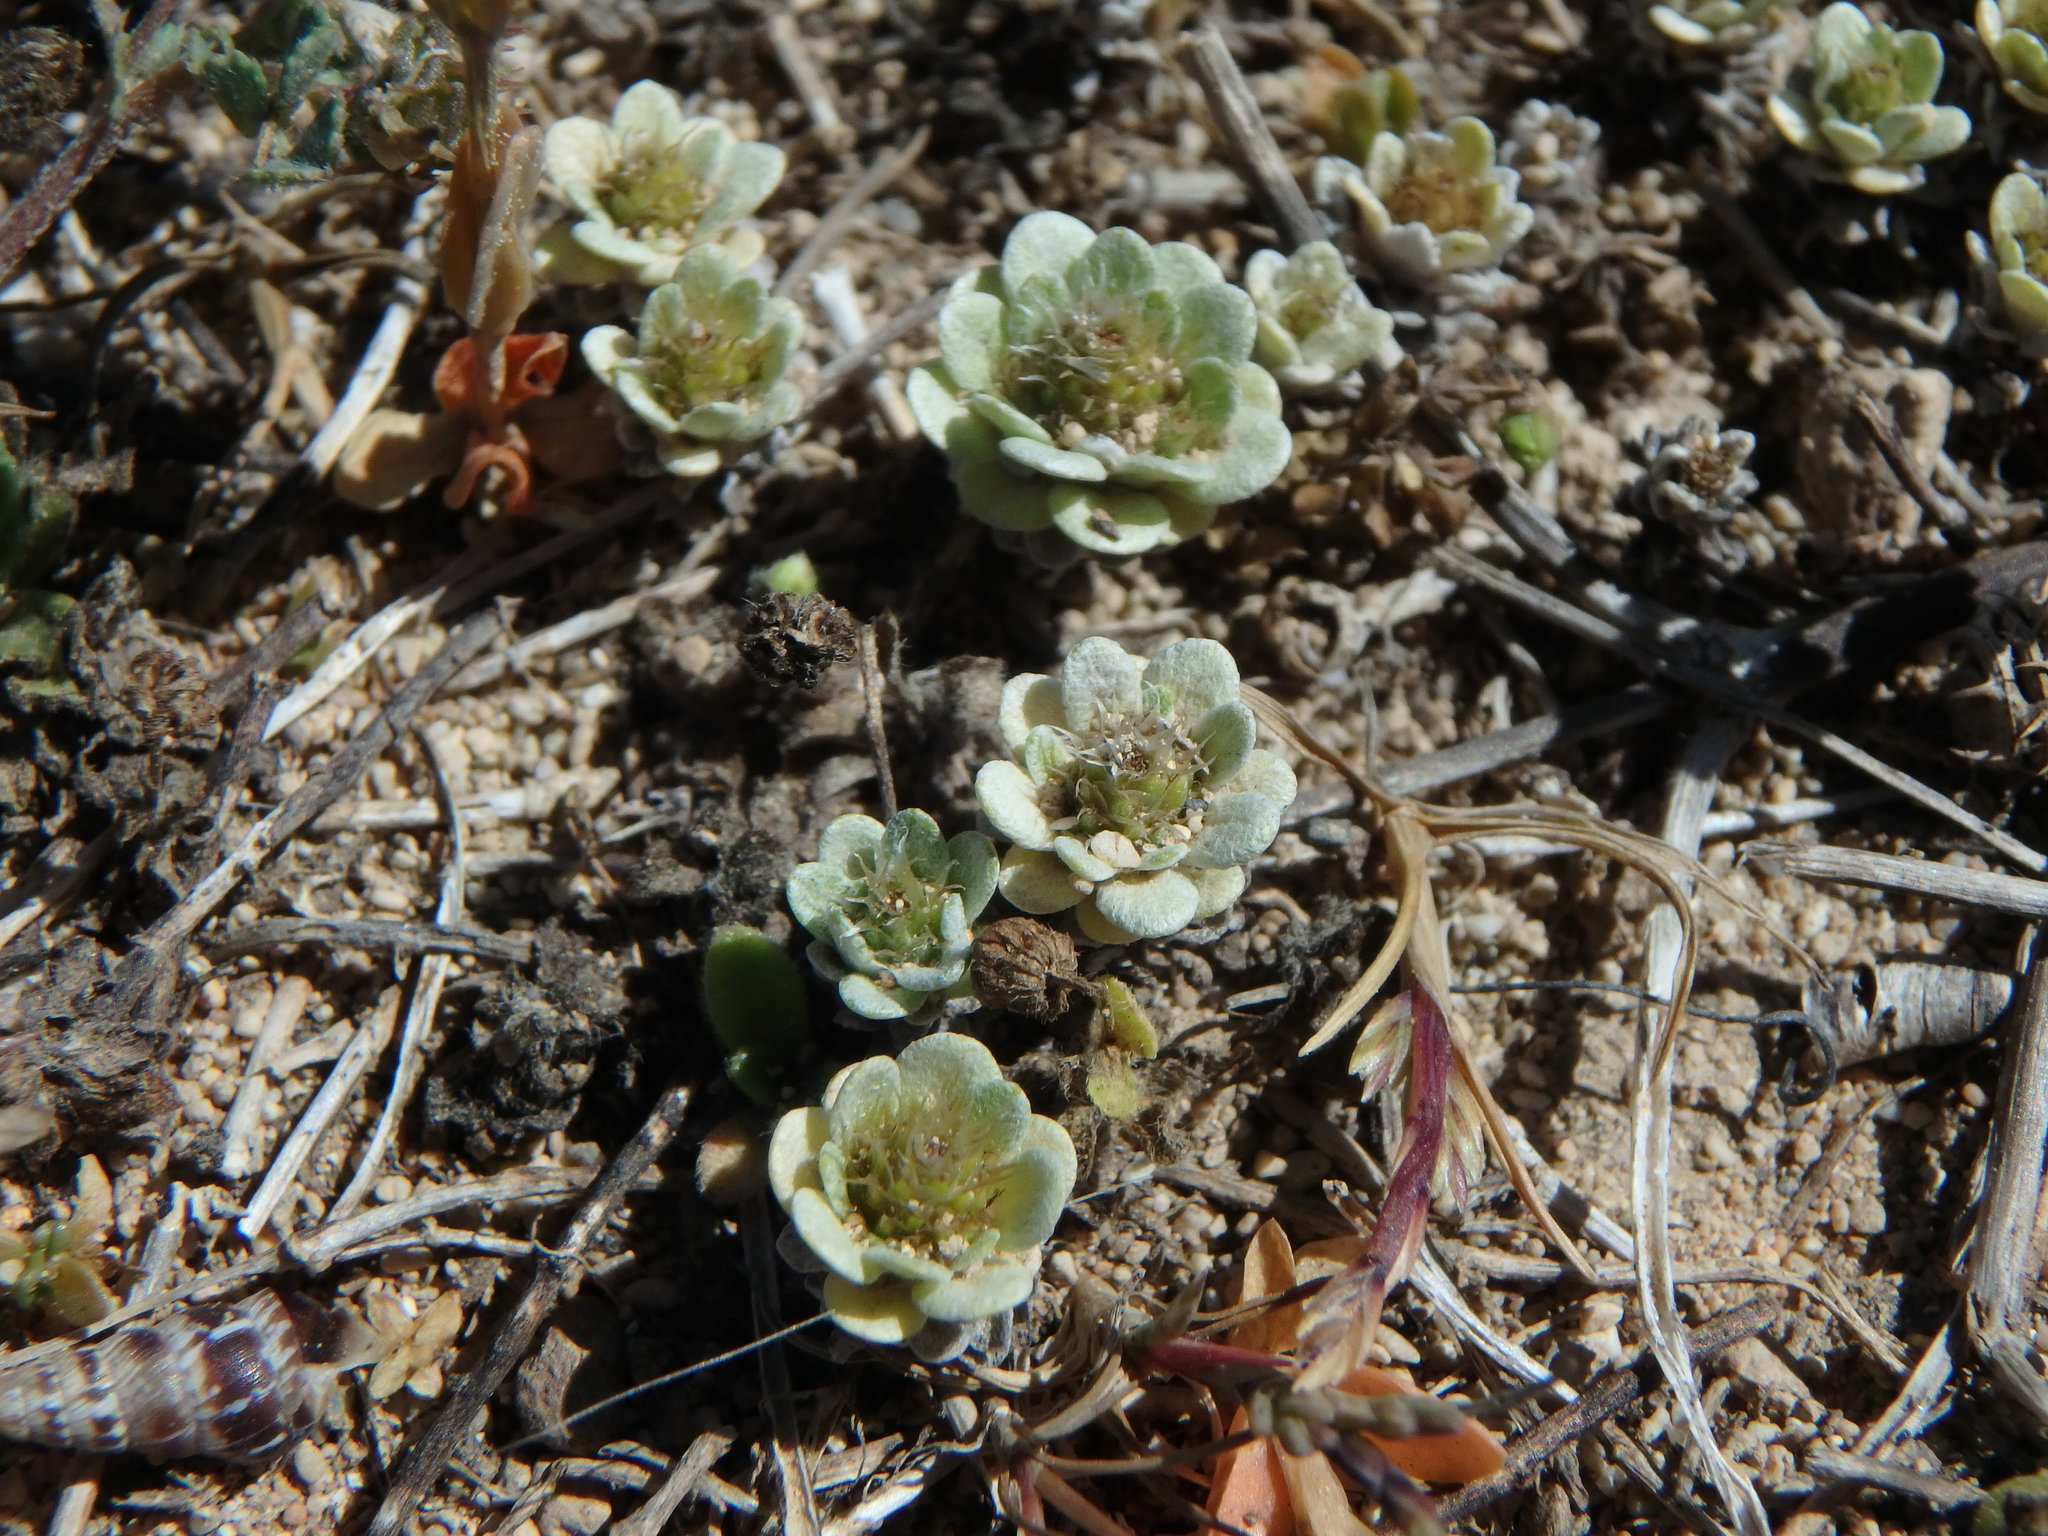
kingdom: Plantae
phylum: Tracheophyta
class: Magnoliopsida
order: Asterales
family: Asteraceae
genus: Filago
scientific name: Filago pygmaea
